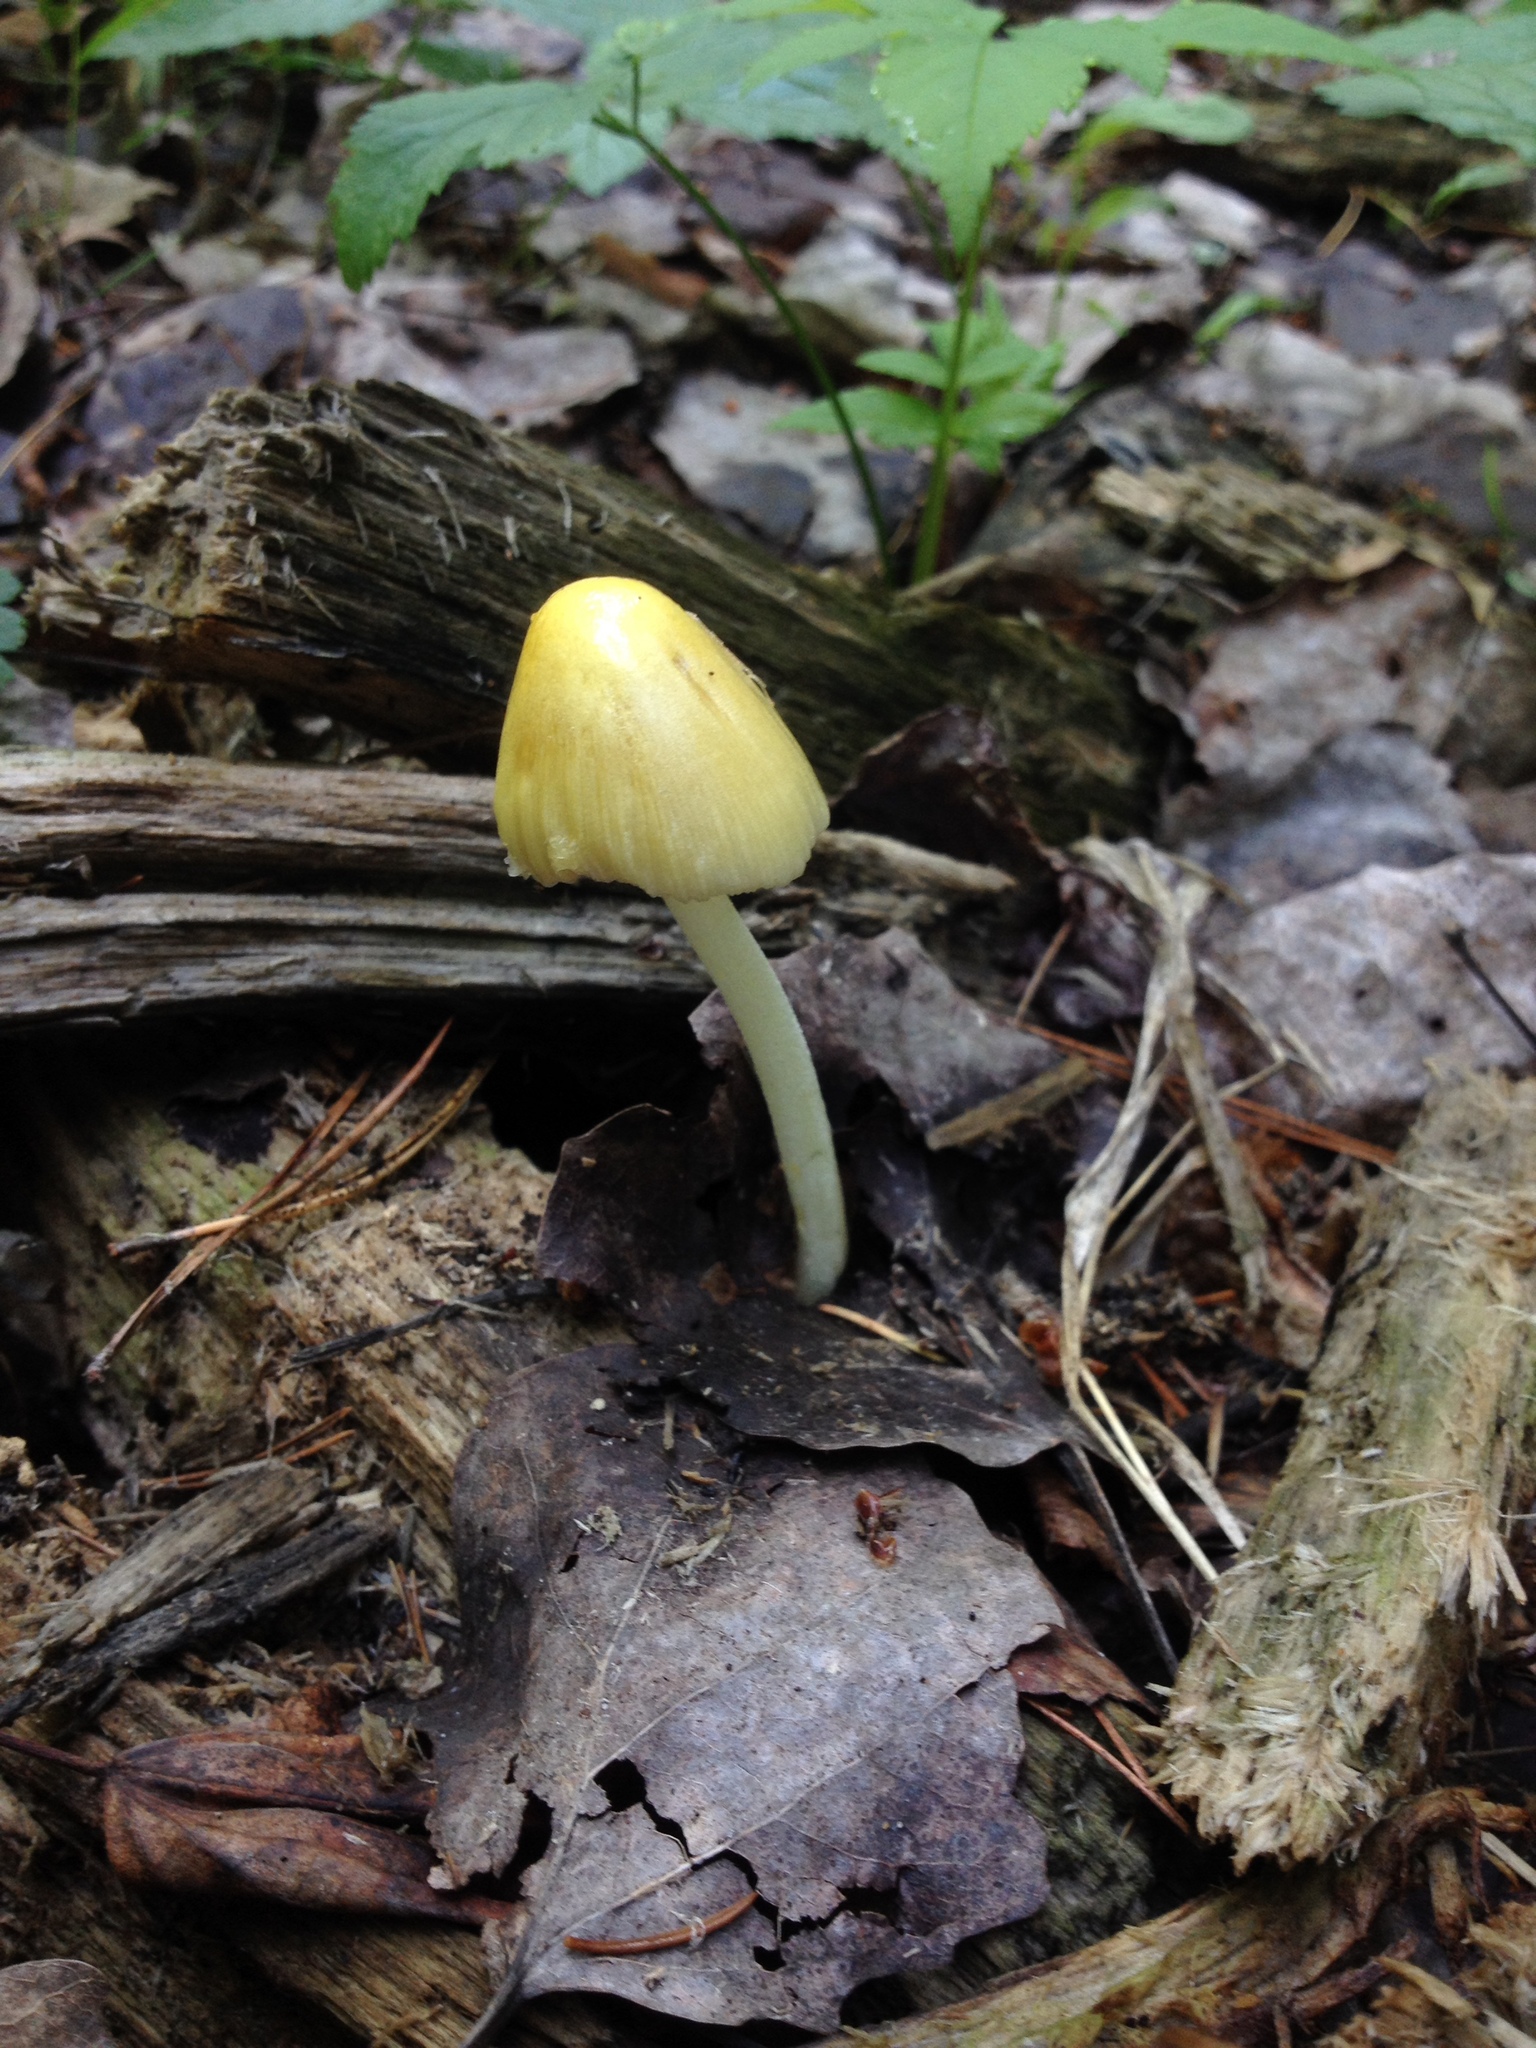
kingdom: Fungi
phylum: Basidiomycota
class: Agaricomycetes
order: Agaricales
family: Bolbitiaceae
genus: Bolbitius
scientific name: Bolbitius titubans
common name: Yellow fieldcap
